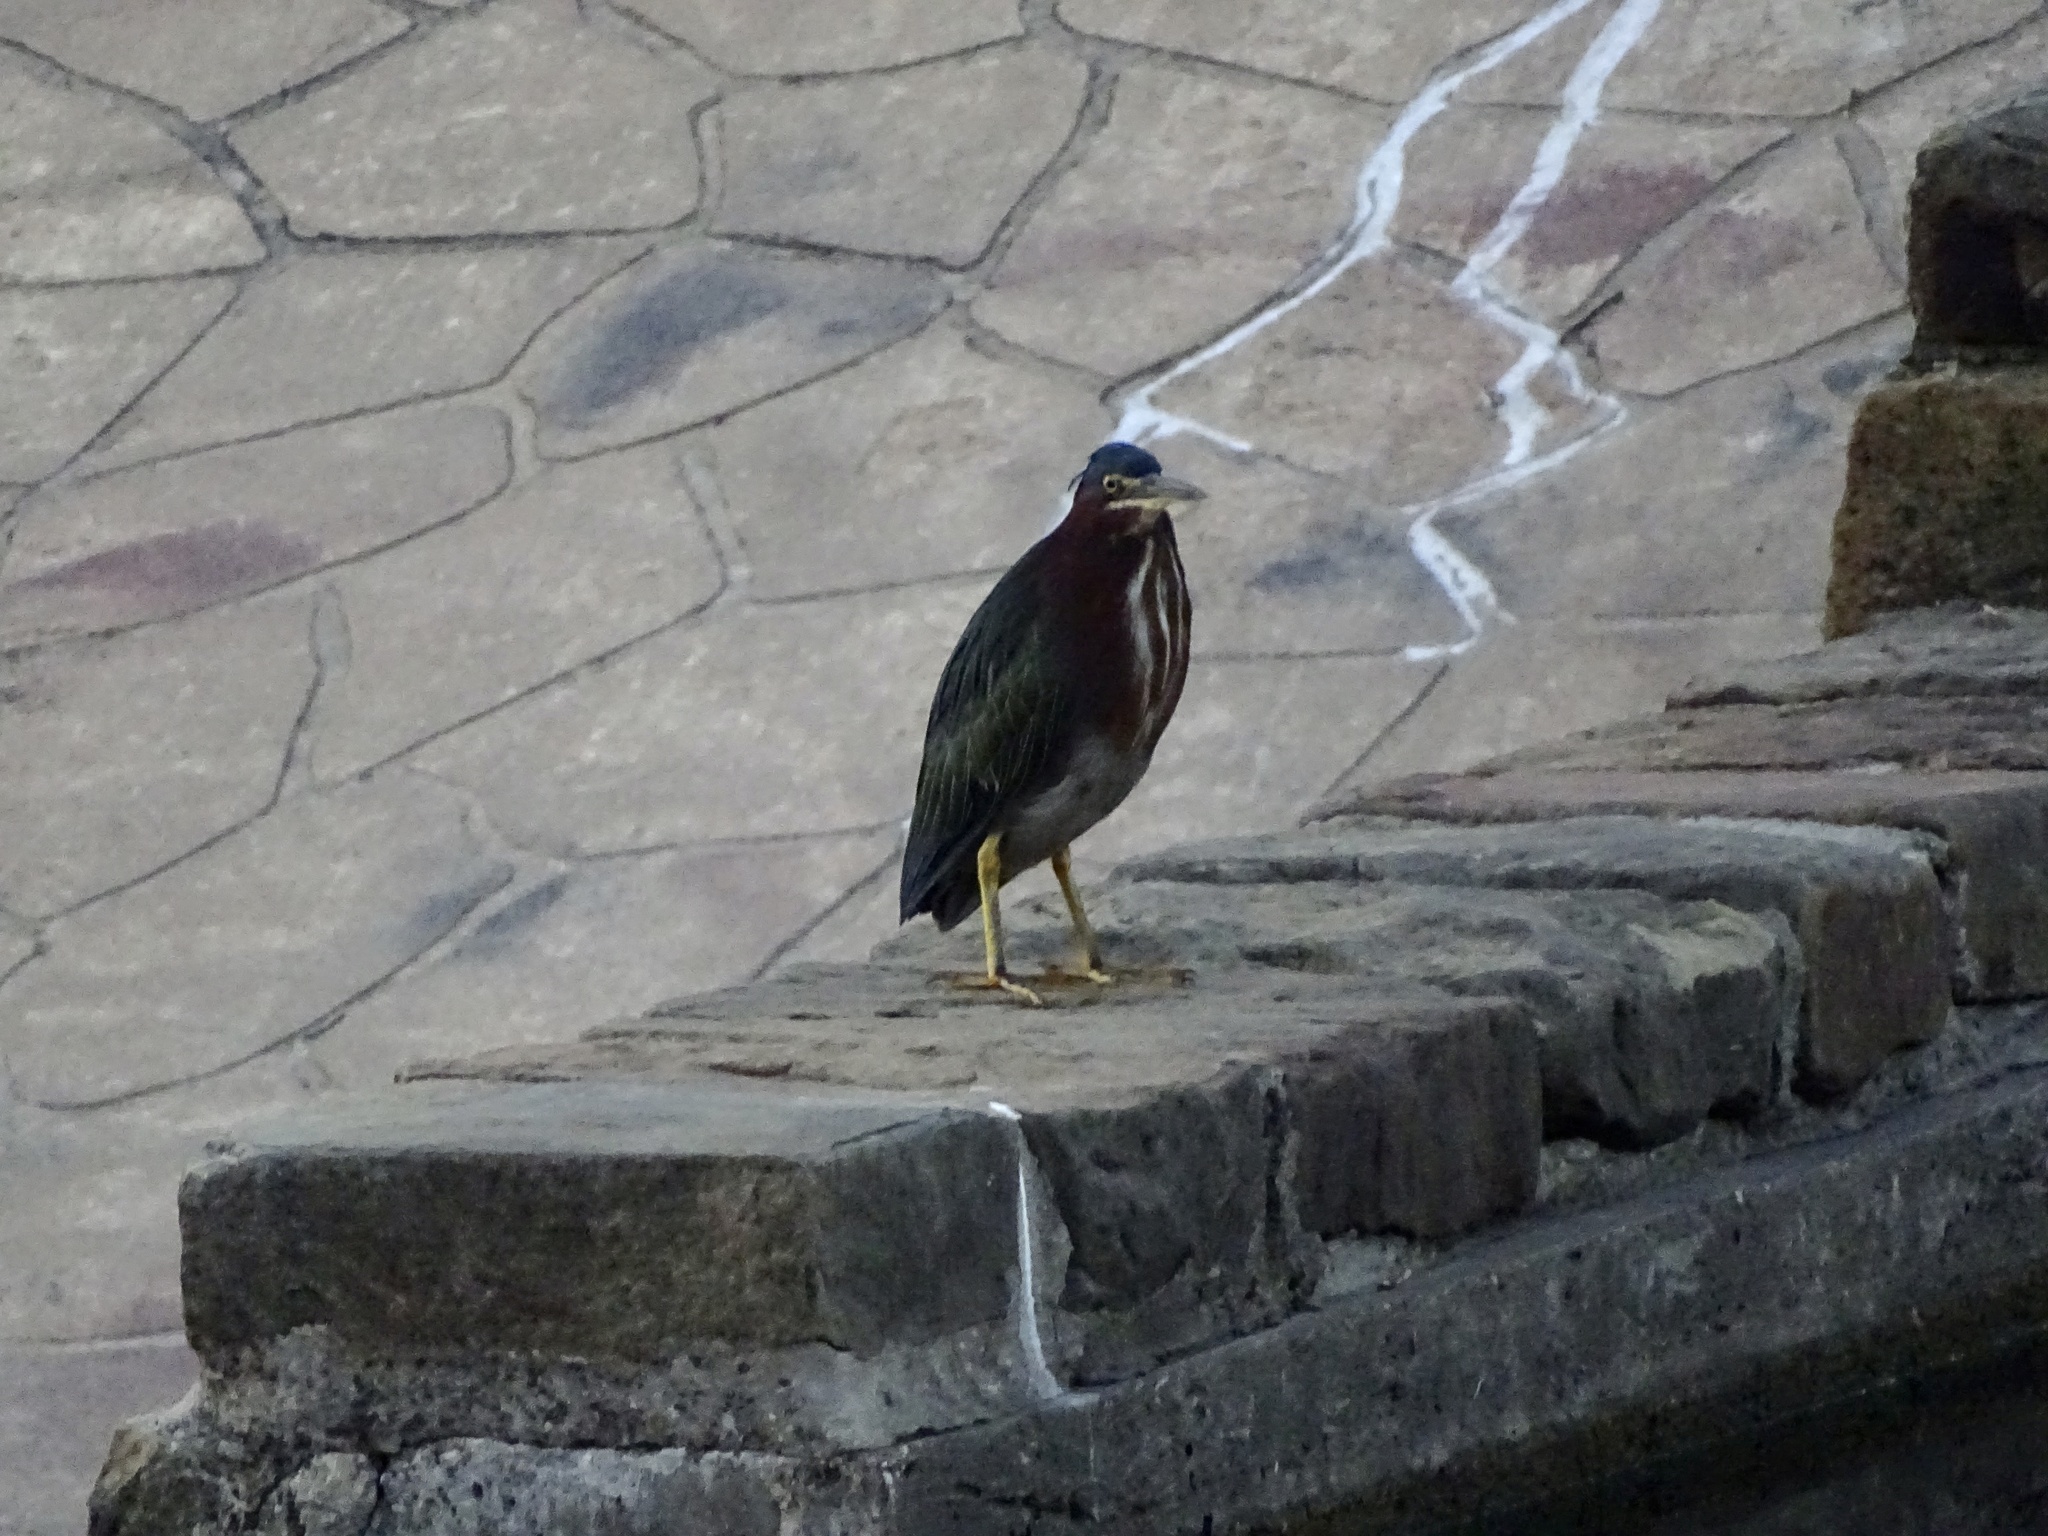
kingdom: Animalia
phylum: Chordata
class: Aves
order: Pelecaniformes
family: Ardeidae
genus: Butorides
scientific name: Butorides virescens
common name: Green heron
